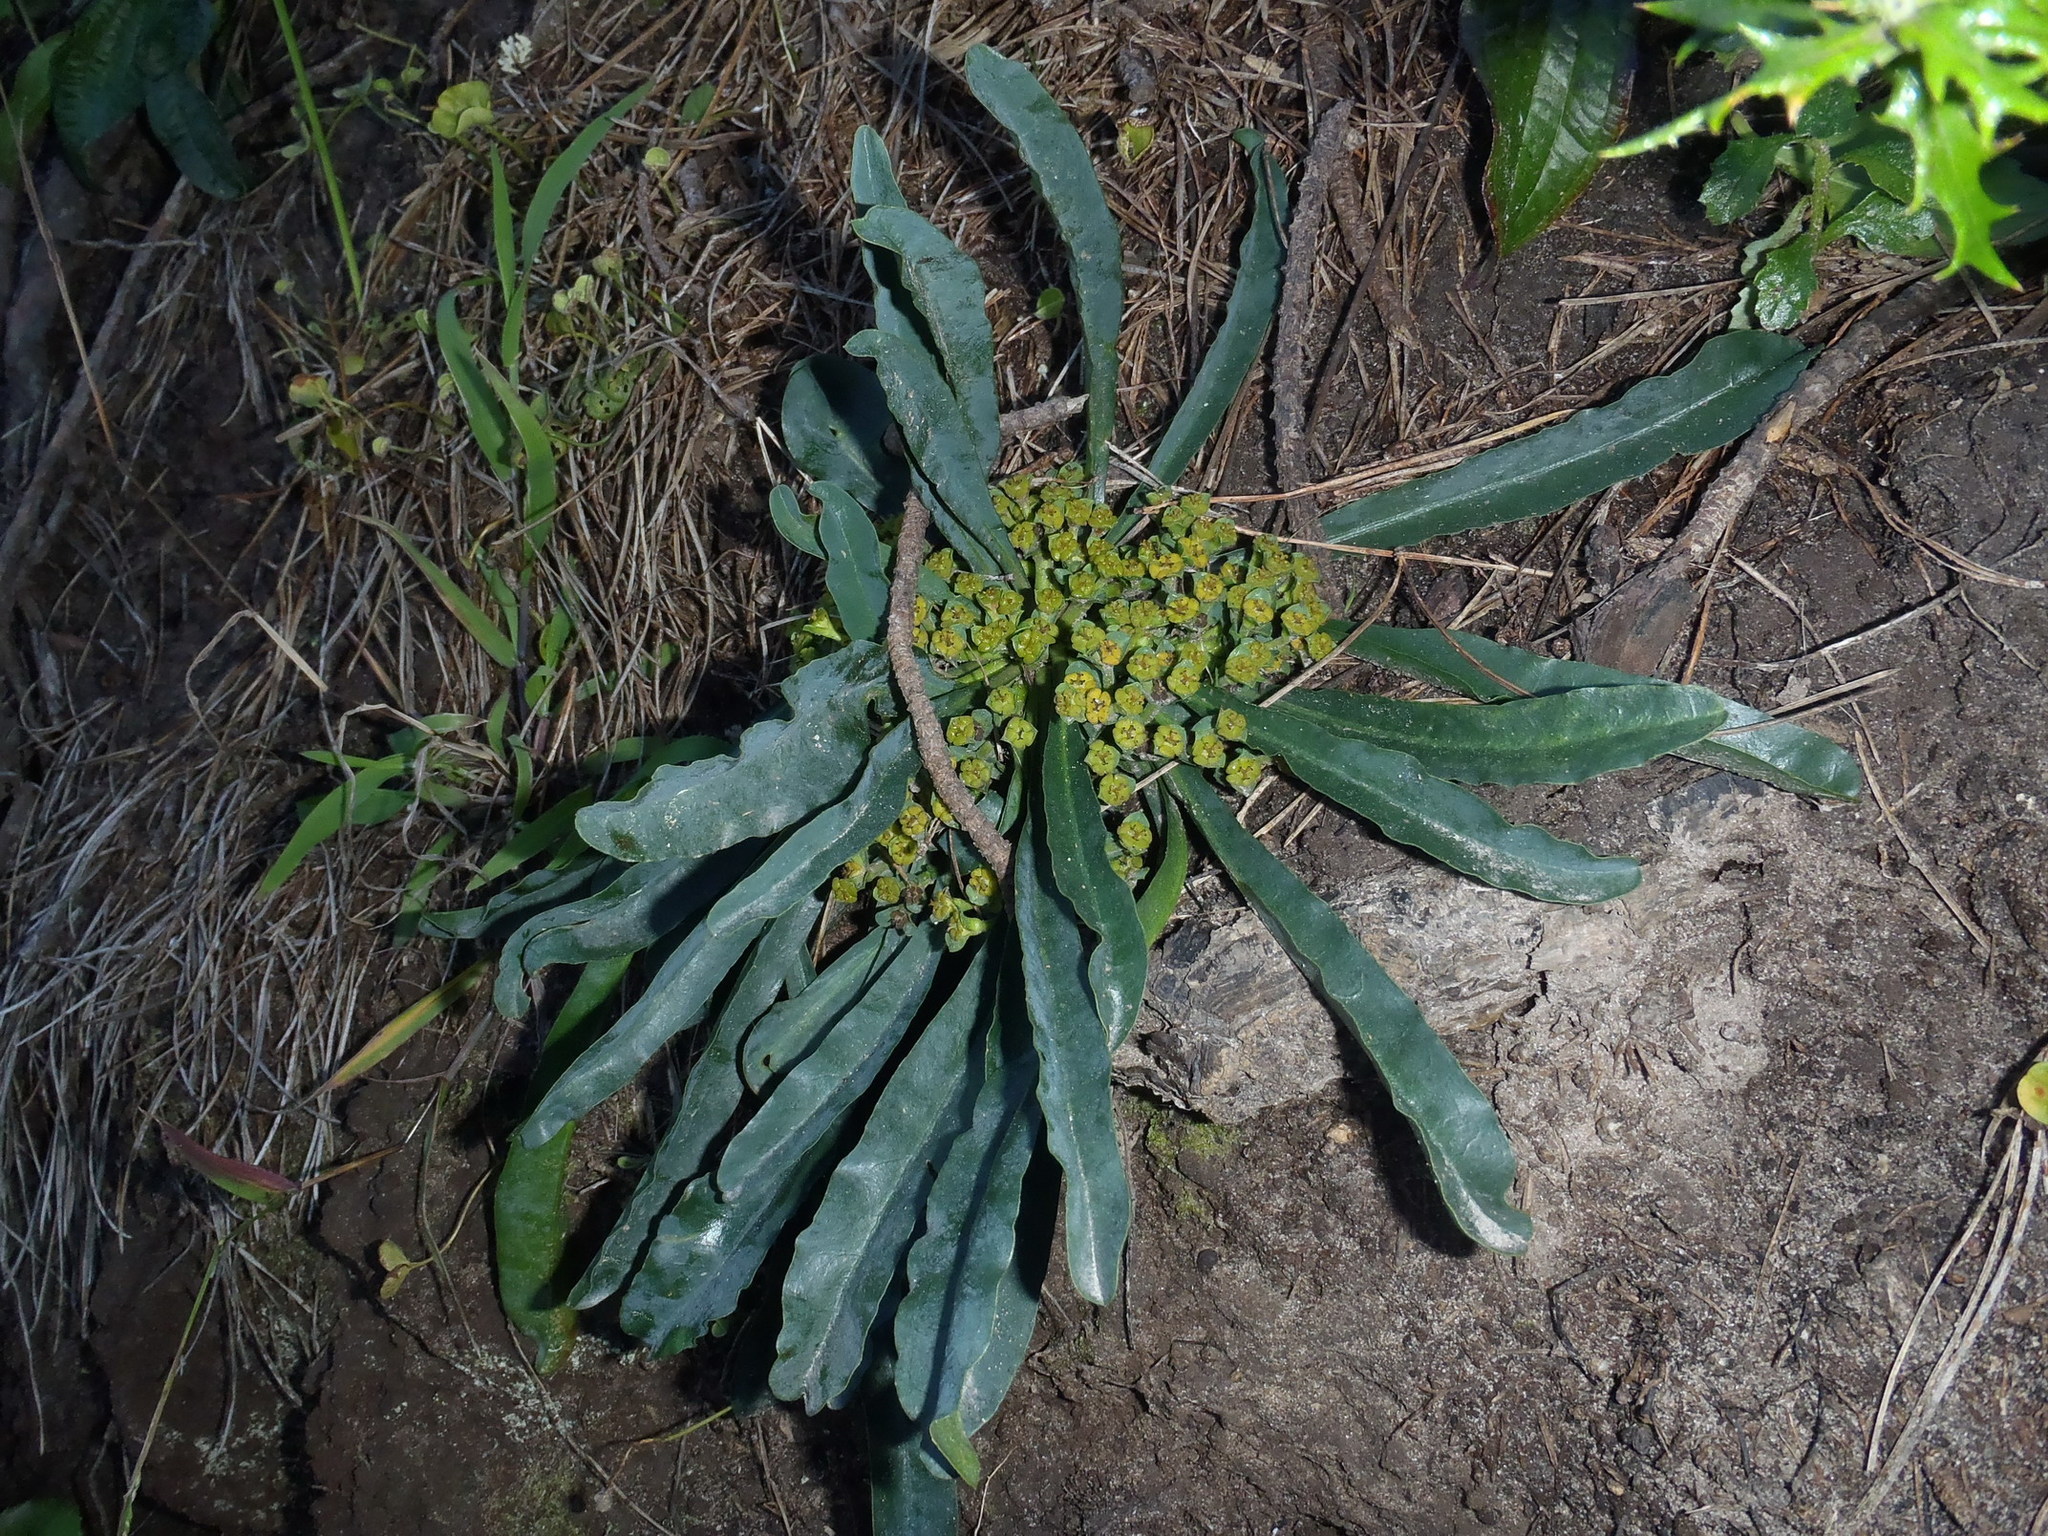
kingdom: Plantae
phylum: Tracheophyta
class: Magnoliopsida
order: Malpighiales
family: Euphorbiaceae
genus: Euphorbia
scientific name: Euphorbia silenifolia
